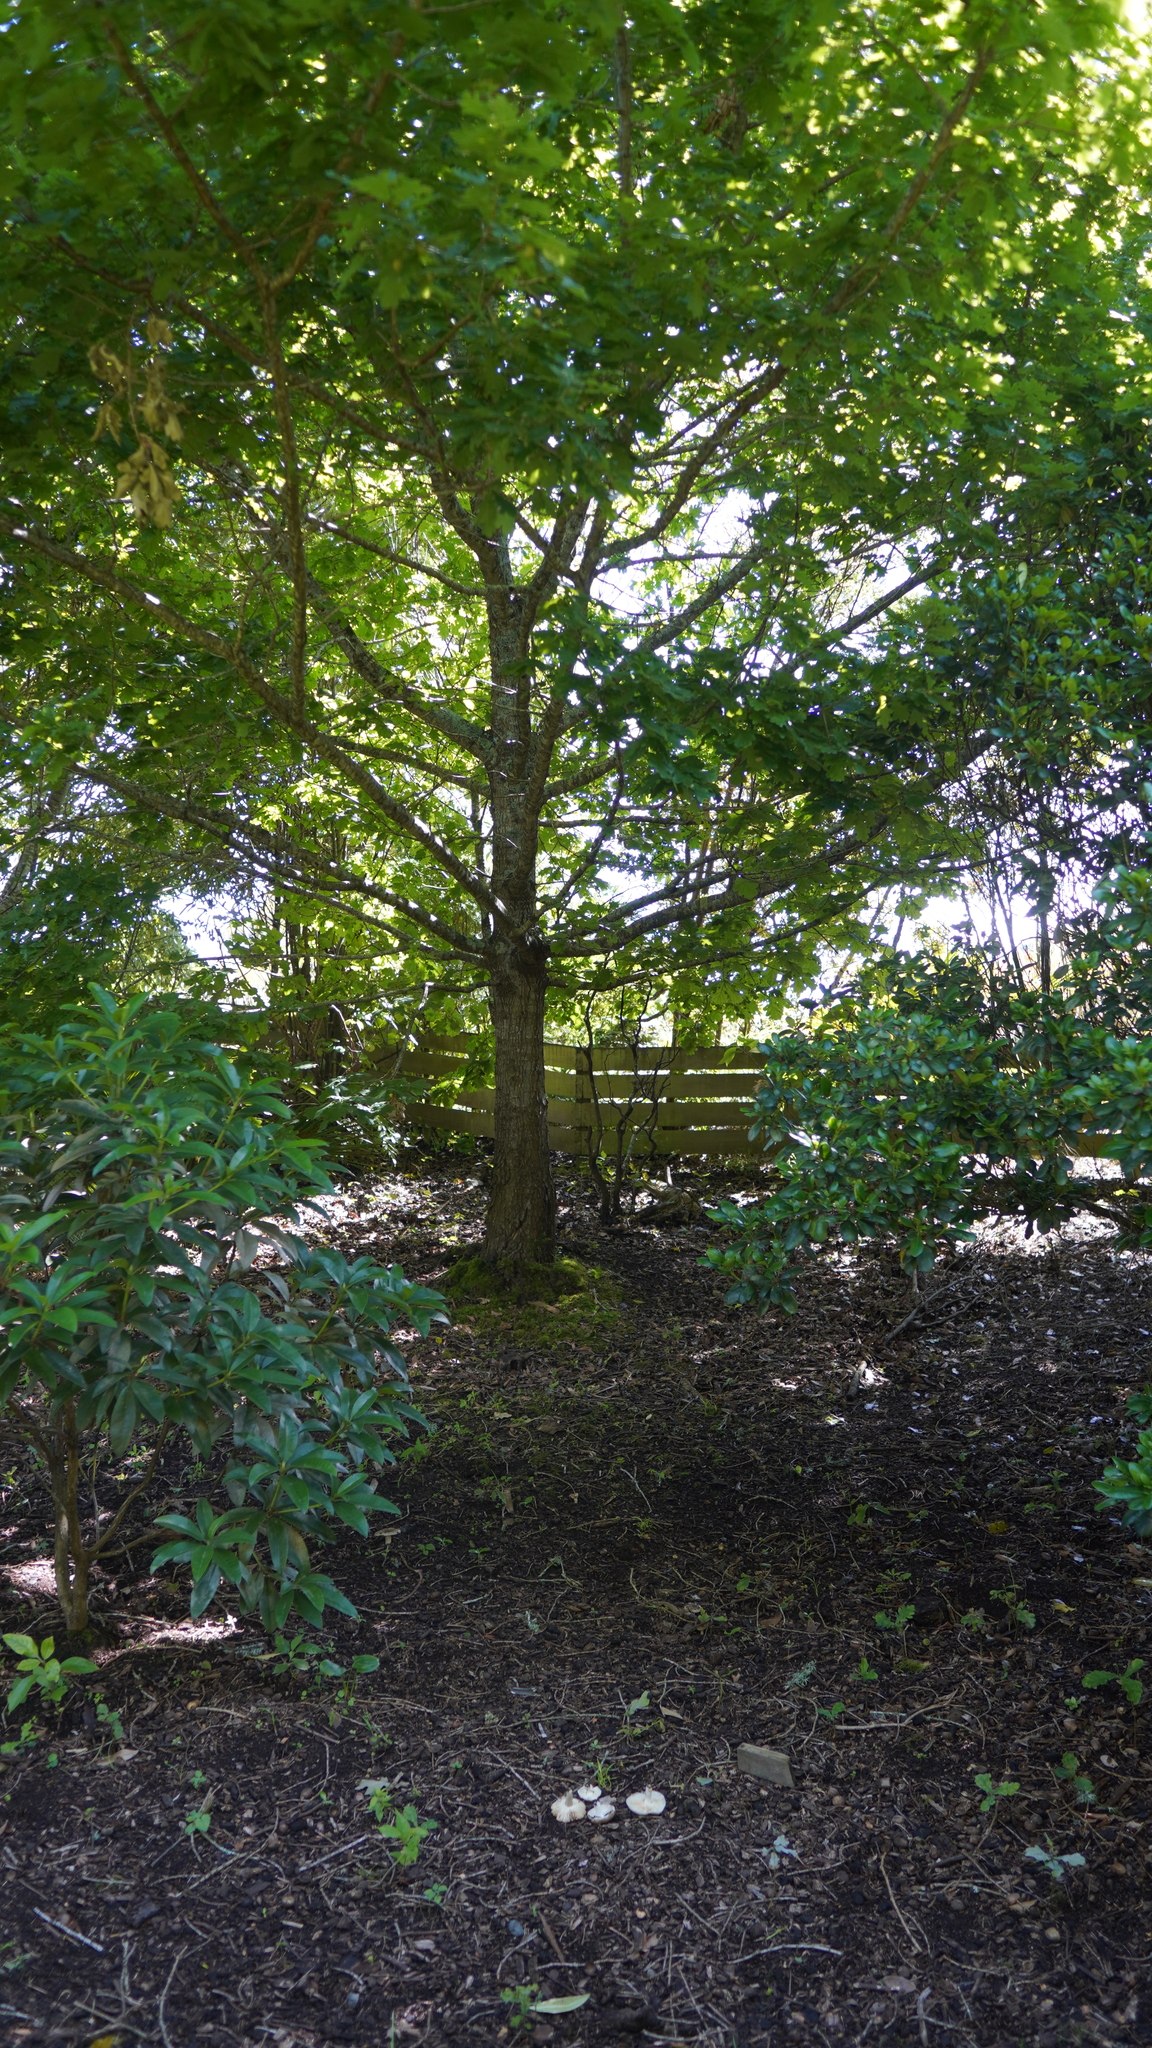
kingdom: Fungi
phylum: Basidiomycota
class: Agaricomycetes
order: Russulales
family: Russulaceae
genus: Russula
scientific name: Russula amoenolens
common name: Camembert brittlegill
